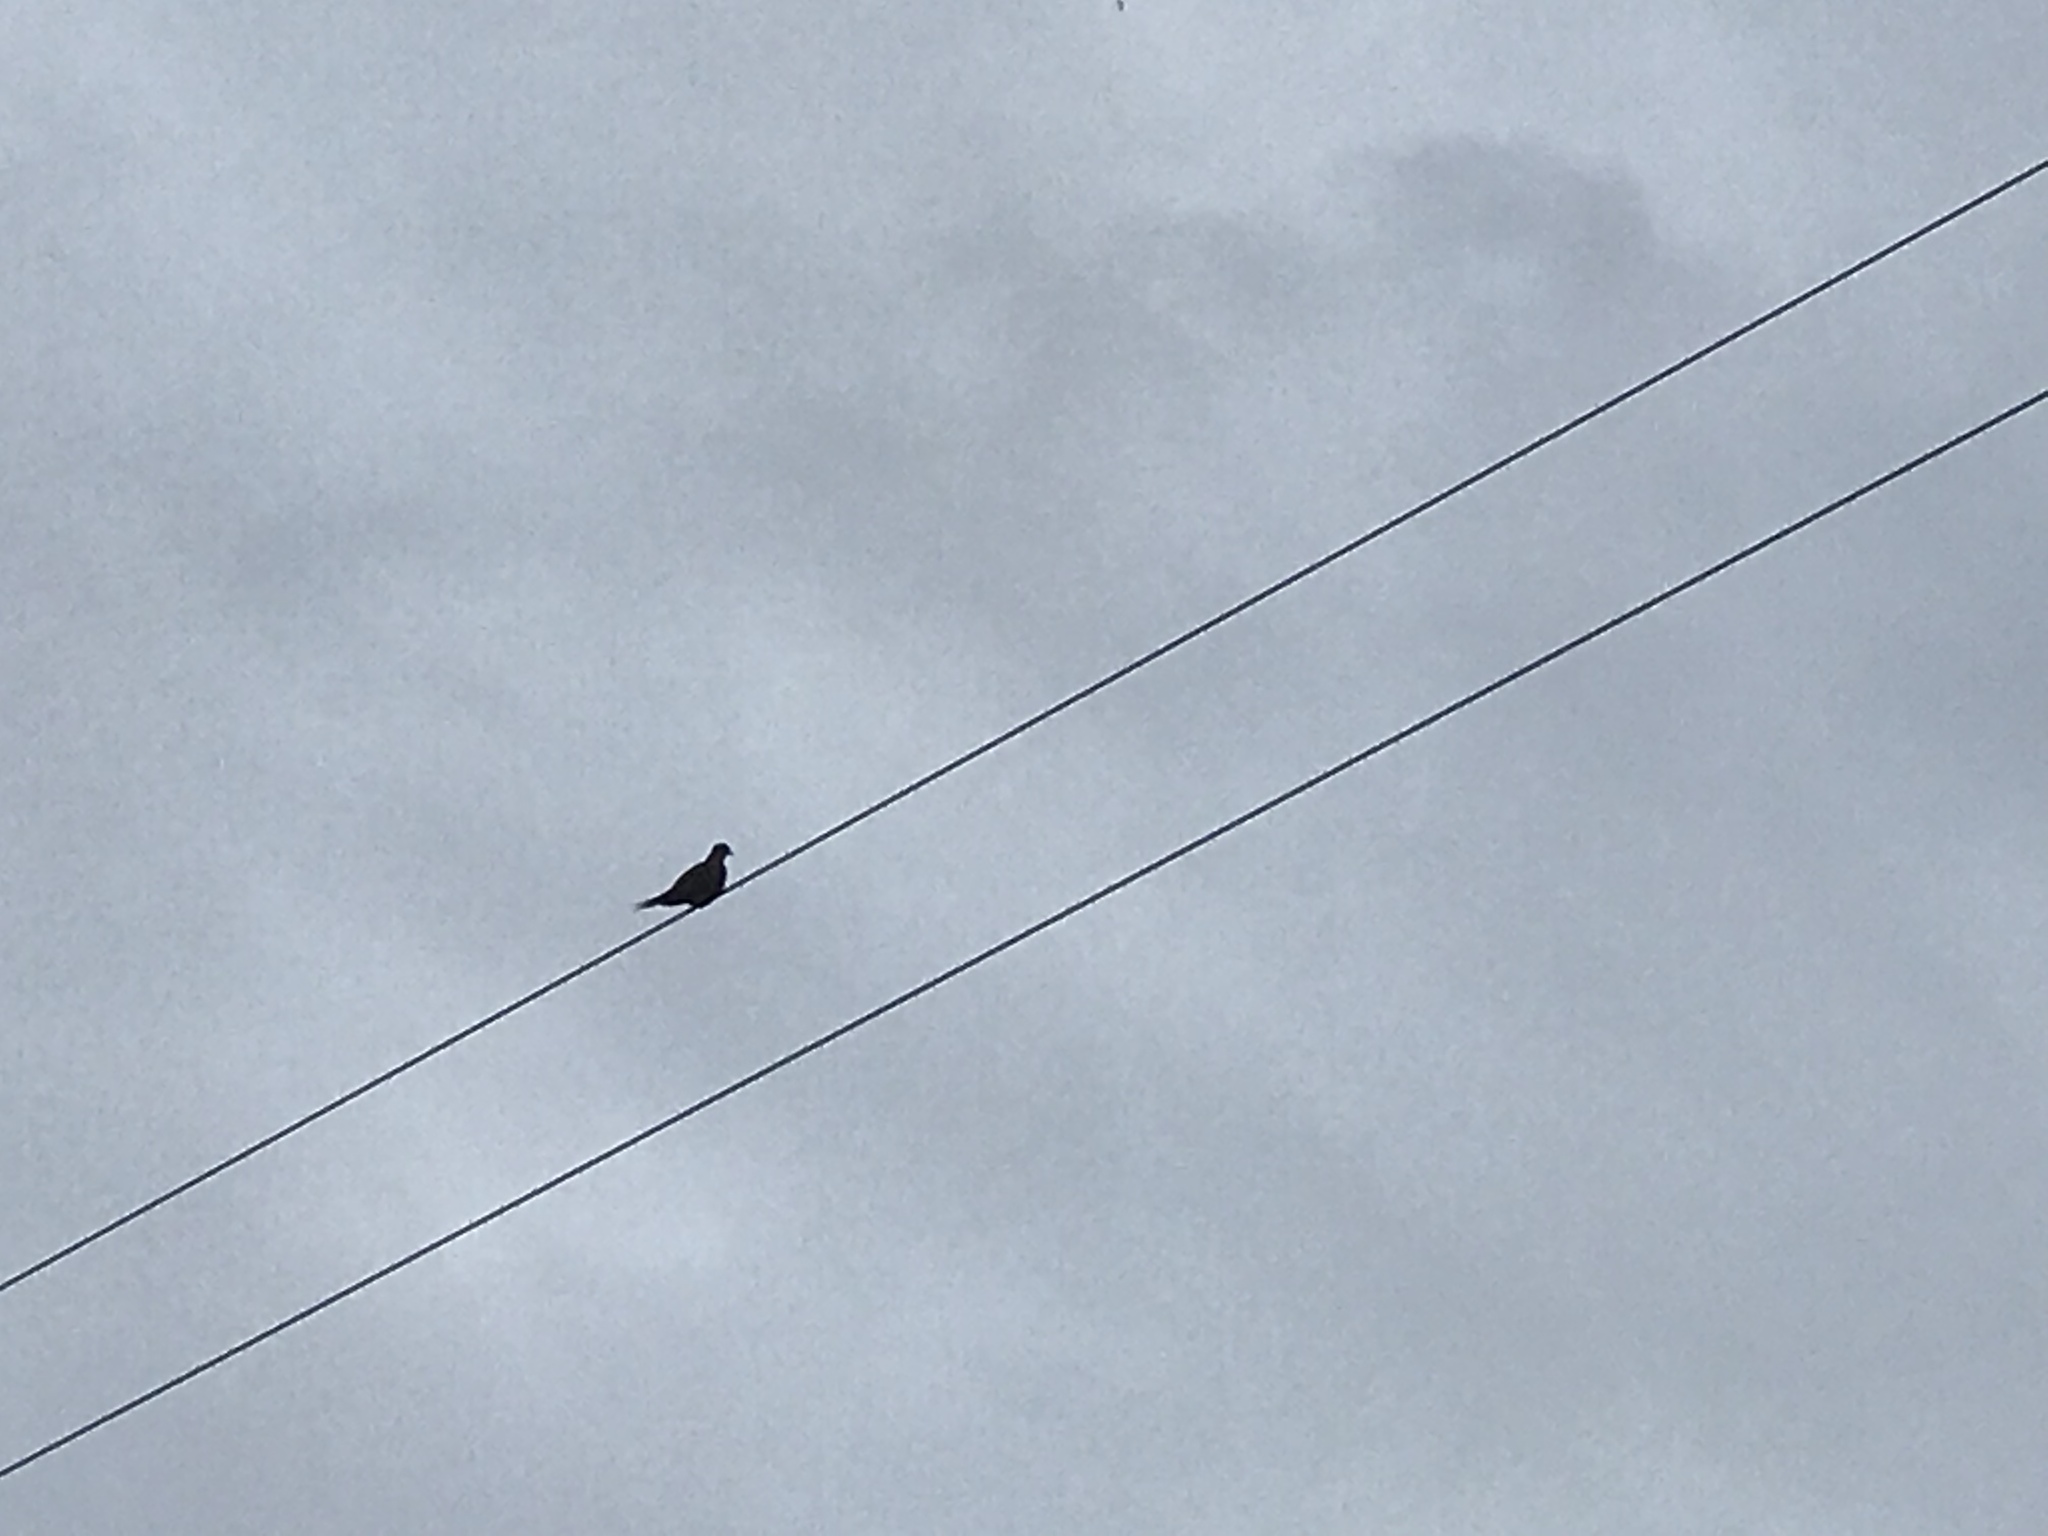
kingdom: Animalia
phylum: Chordata
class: Aves
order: Columbiformes
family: Columbidae
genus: Zenaida
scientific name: Zenaida macroura
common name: Mourning dove
